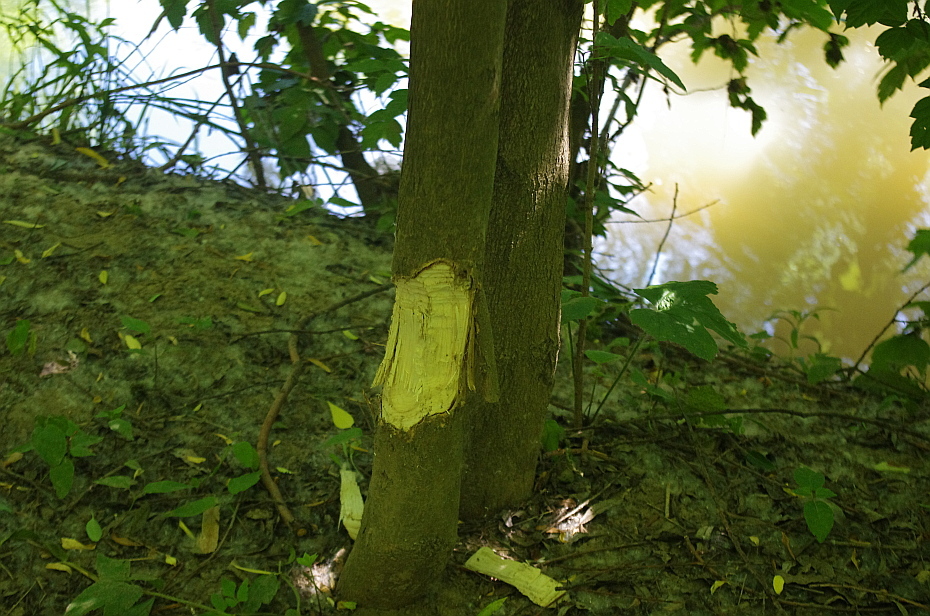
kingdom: Animalia
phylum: Chordata
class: Mammalia
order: Rodentia
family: Castoridae
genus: Castor
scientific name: Castor fiber
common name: Eurasian beaver
